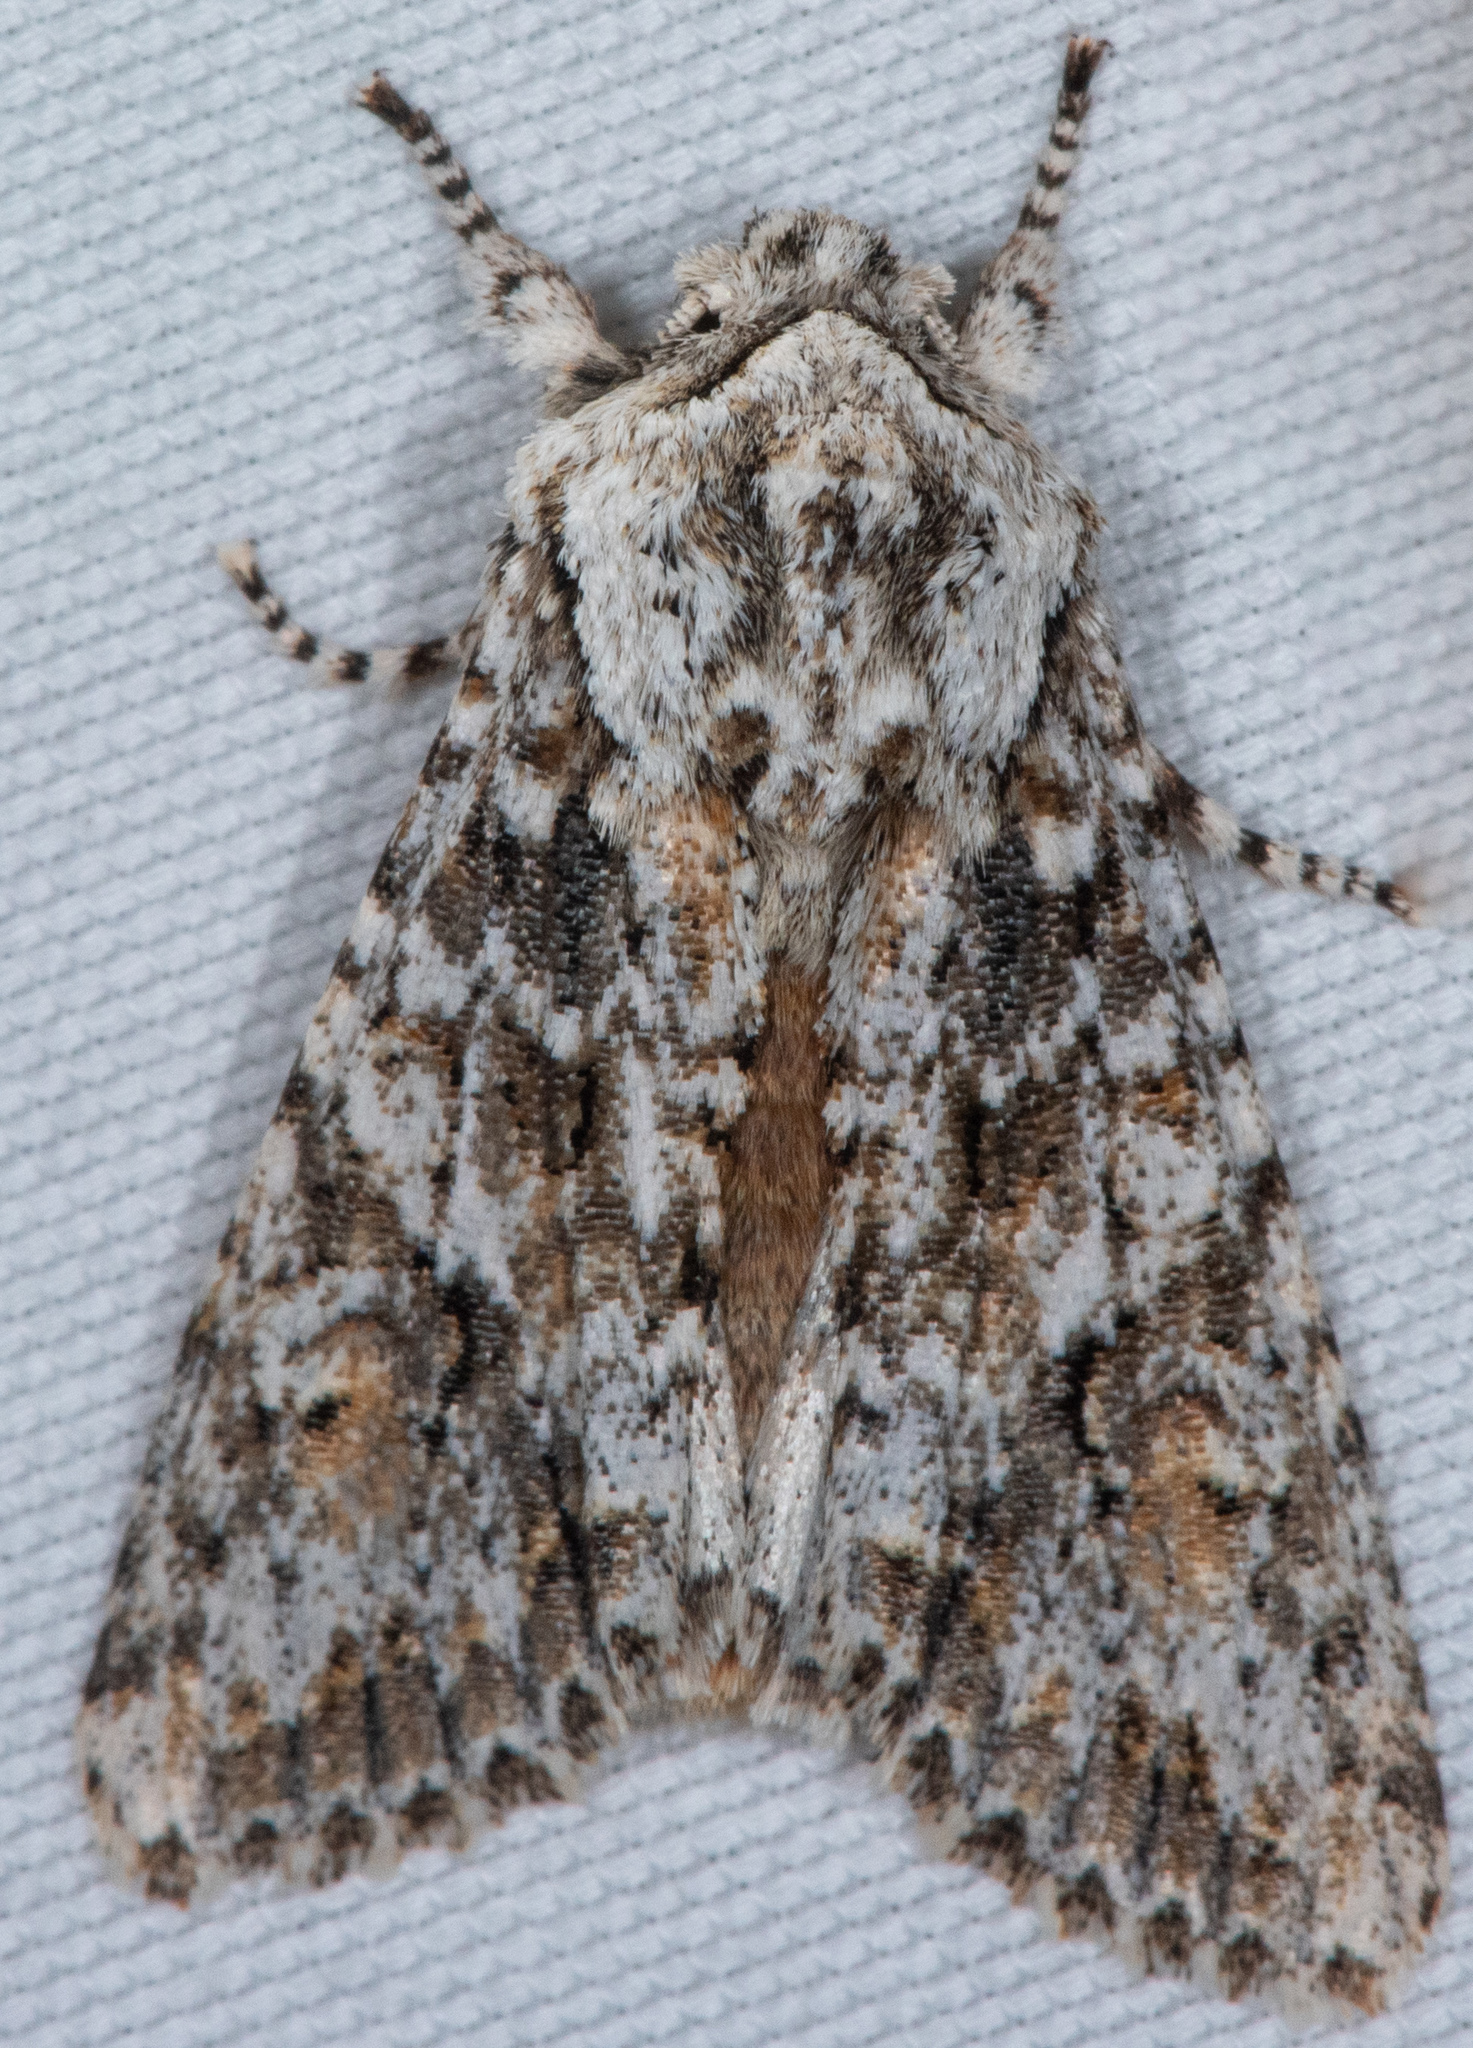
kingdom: Animalia
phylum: Arthropoda
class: Insecta
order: Lepidoptera
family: Noctuidae
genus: Egira
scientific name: Egira februalis
